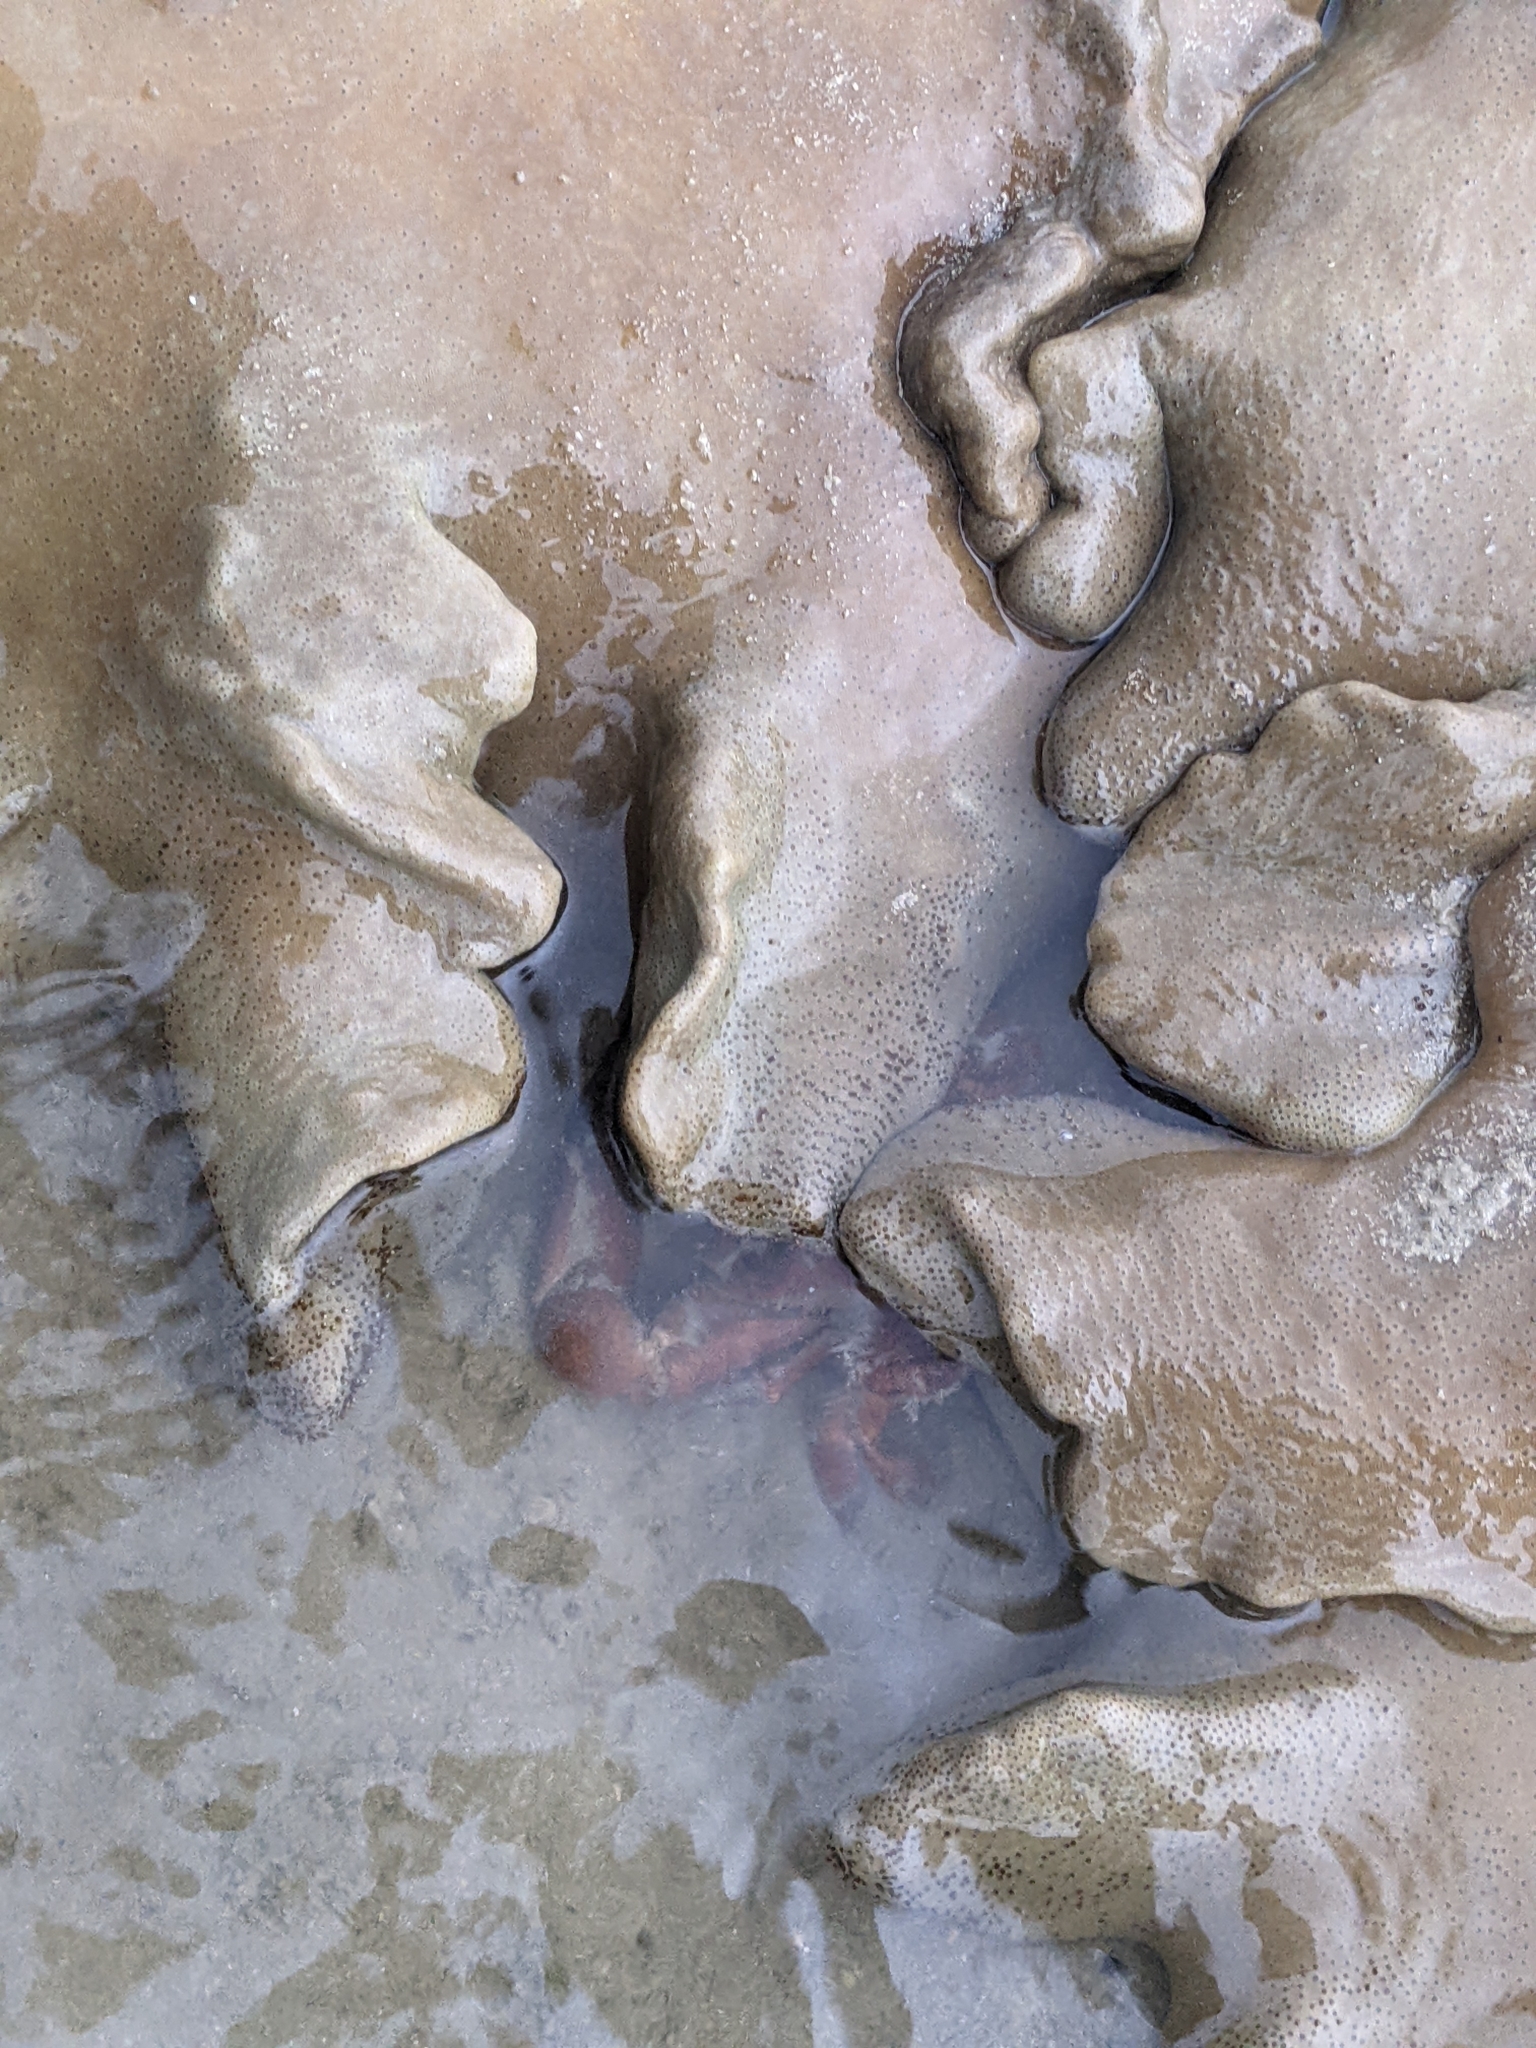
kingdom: Animalia
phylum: Arthropoda
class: Malacostraca
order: Decapoda
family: Xanthidae
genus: Etisus
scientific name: Etisus laevimanus
